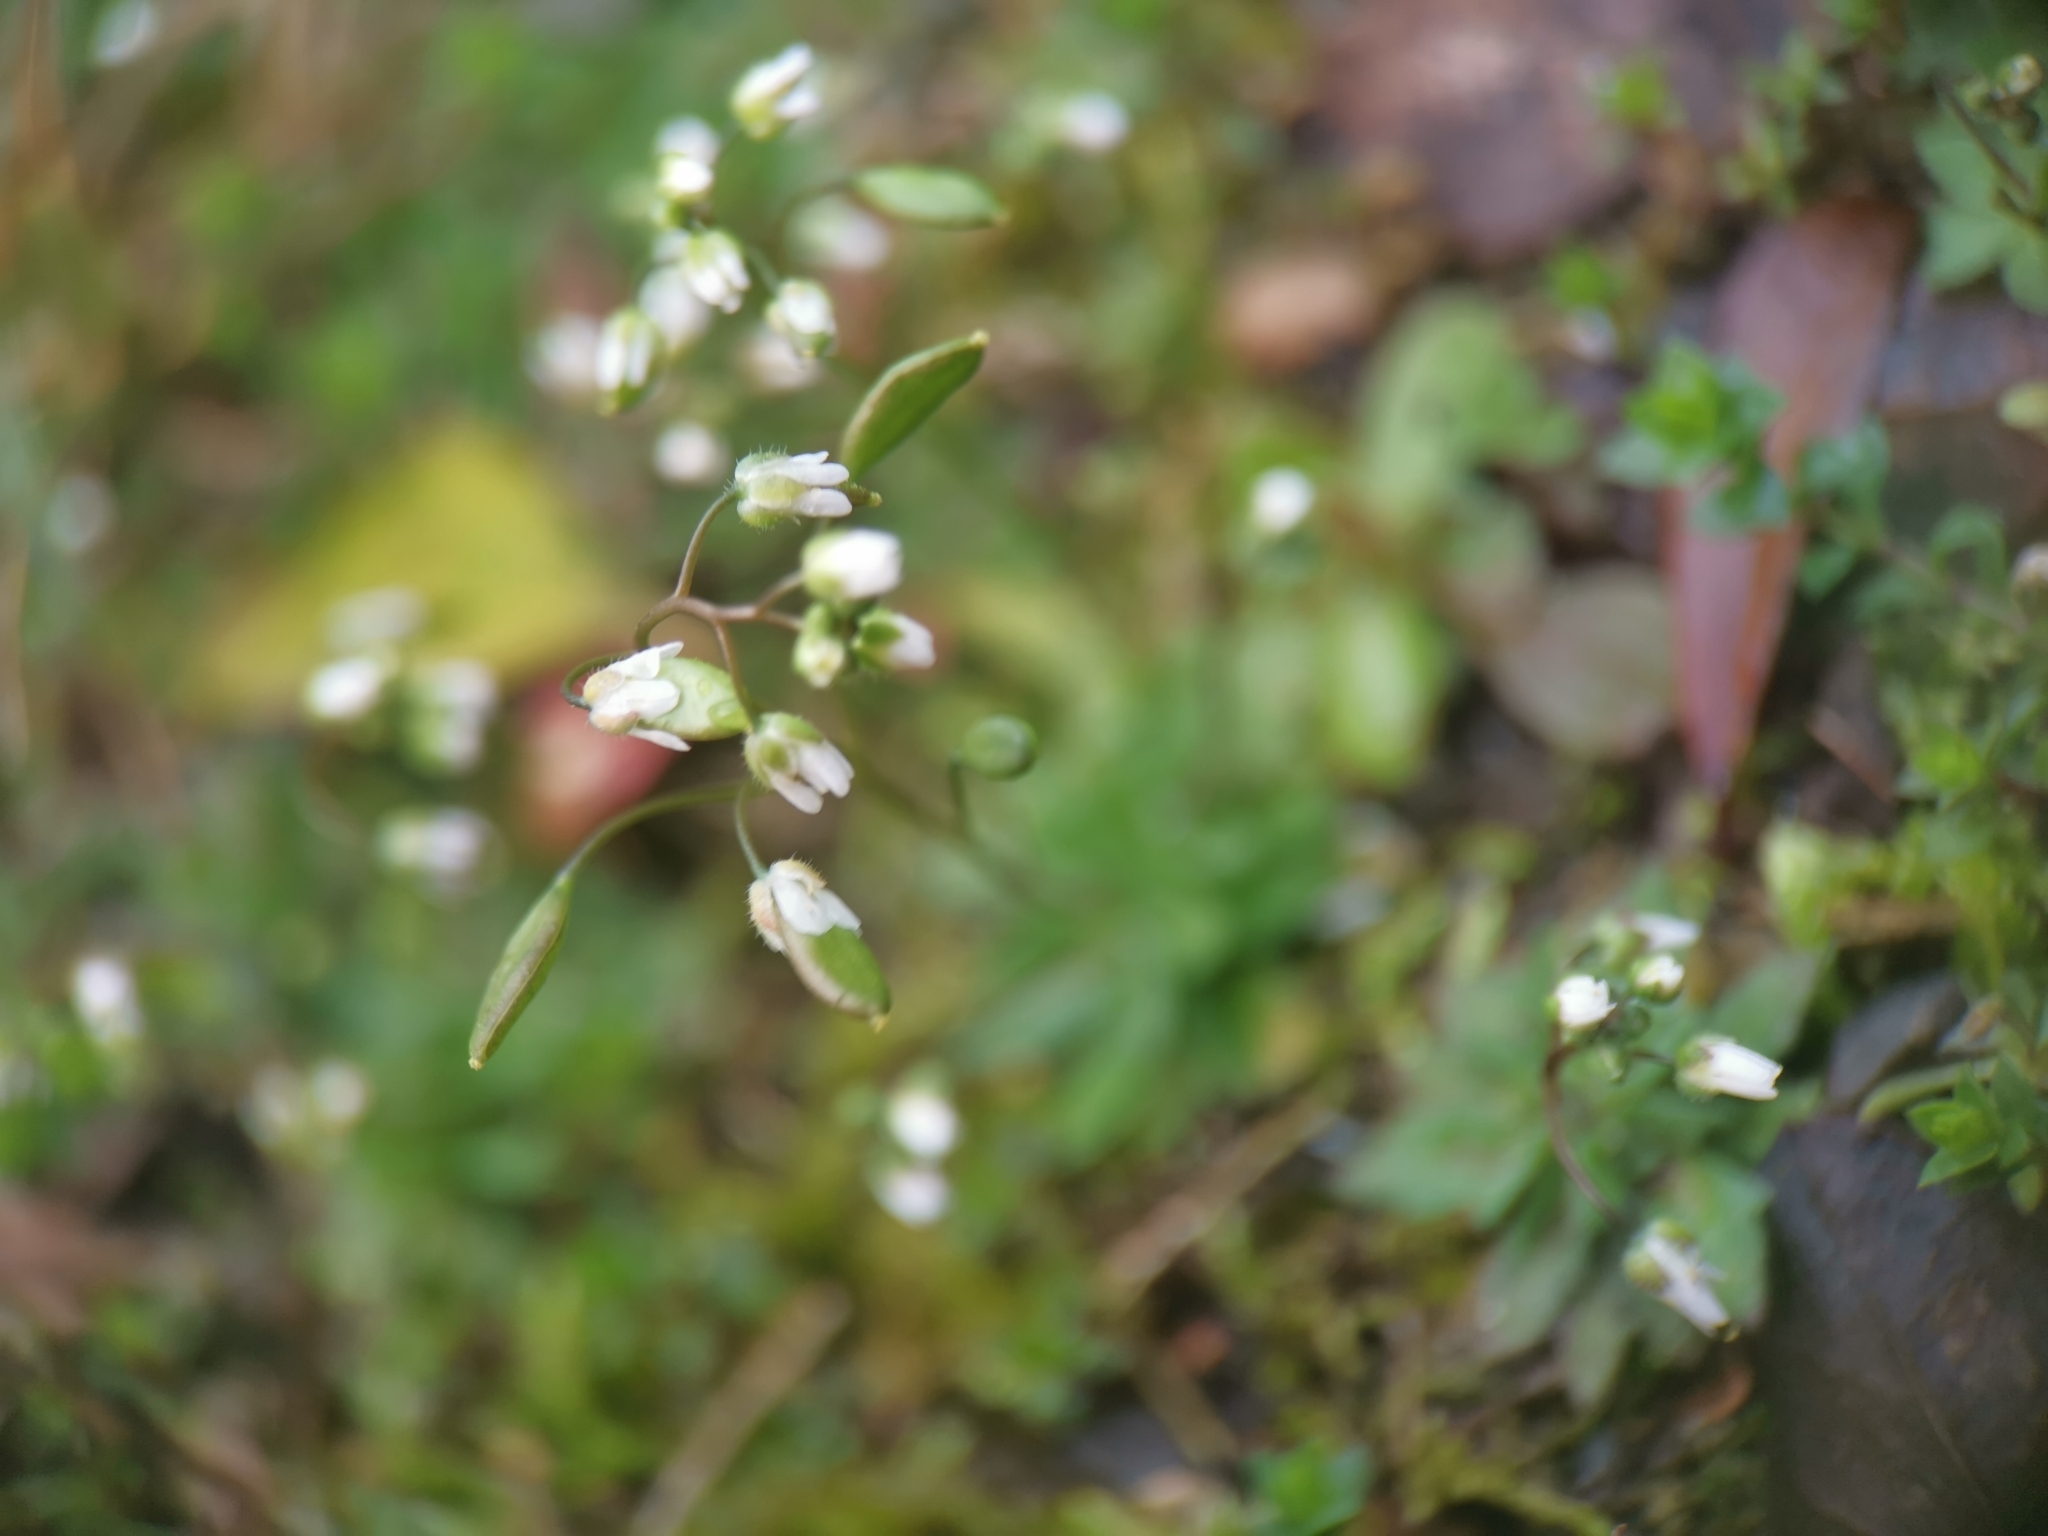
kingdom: Plantae
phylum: Tracheophyta
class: Magnoliopsida
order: Brassicales
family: Brassicaceae
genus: Draba
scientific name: Draba verna
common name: Spring draba
